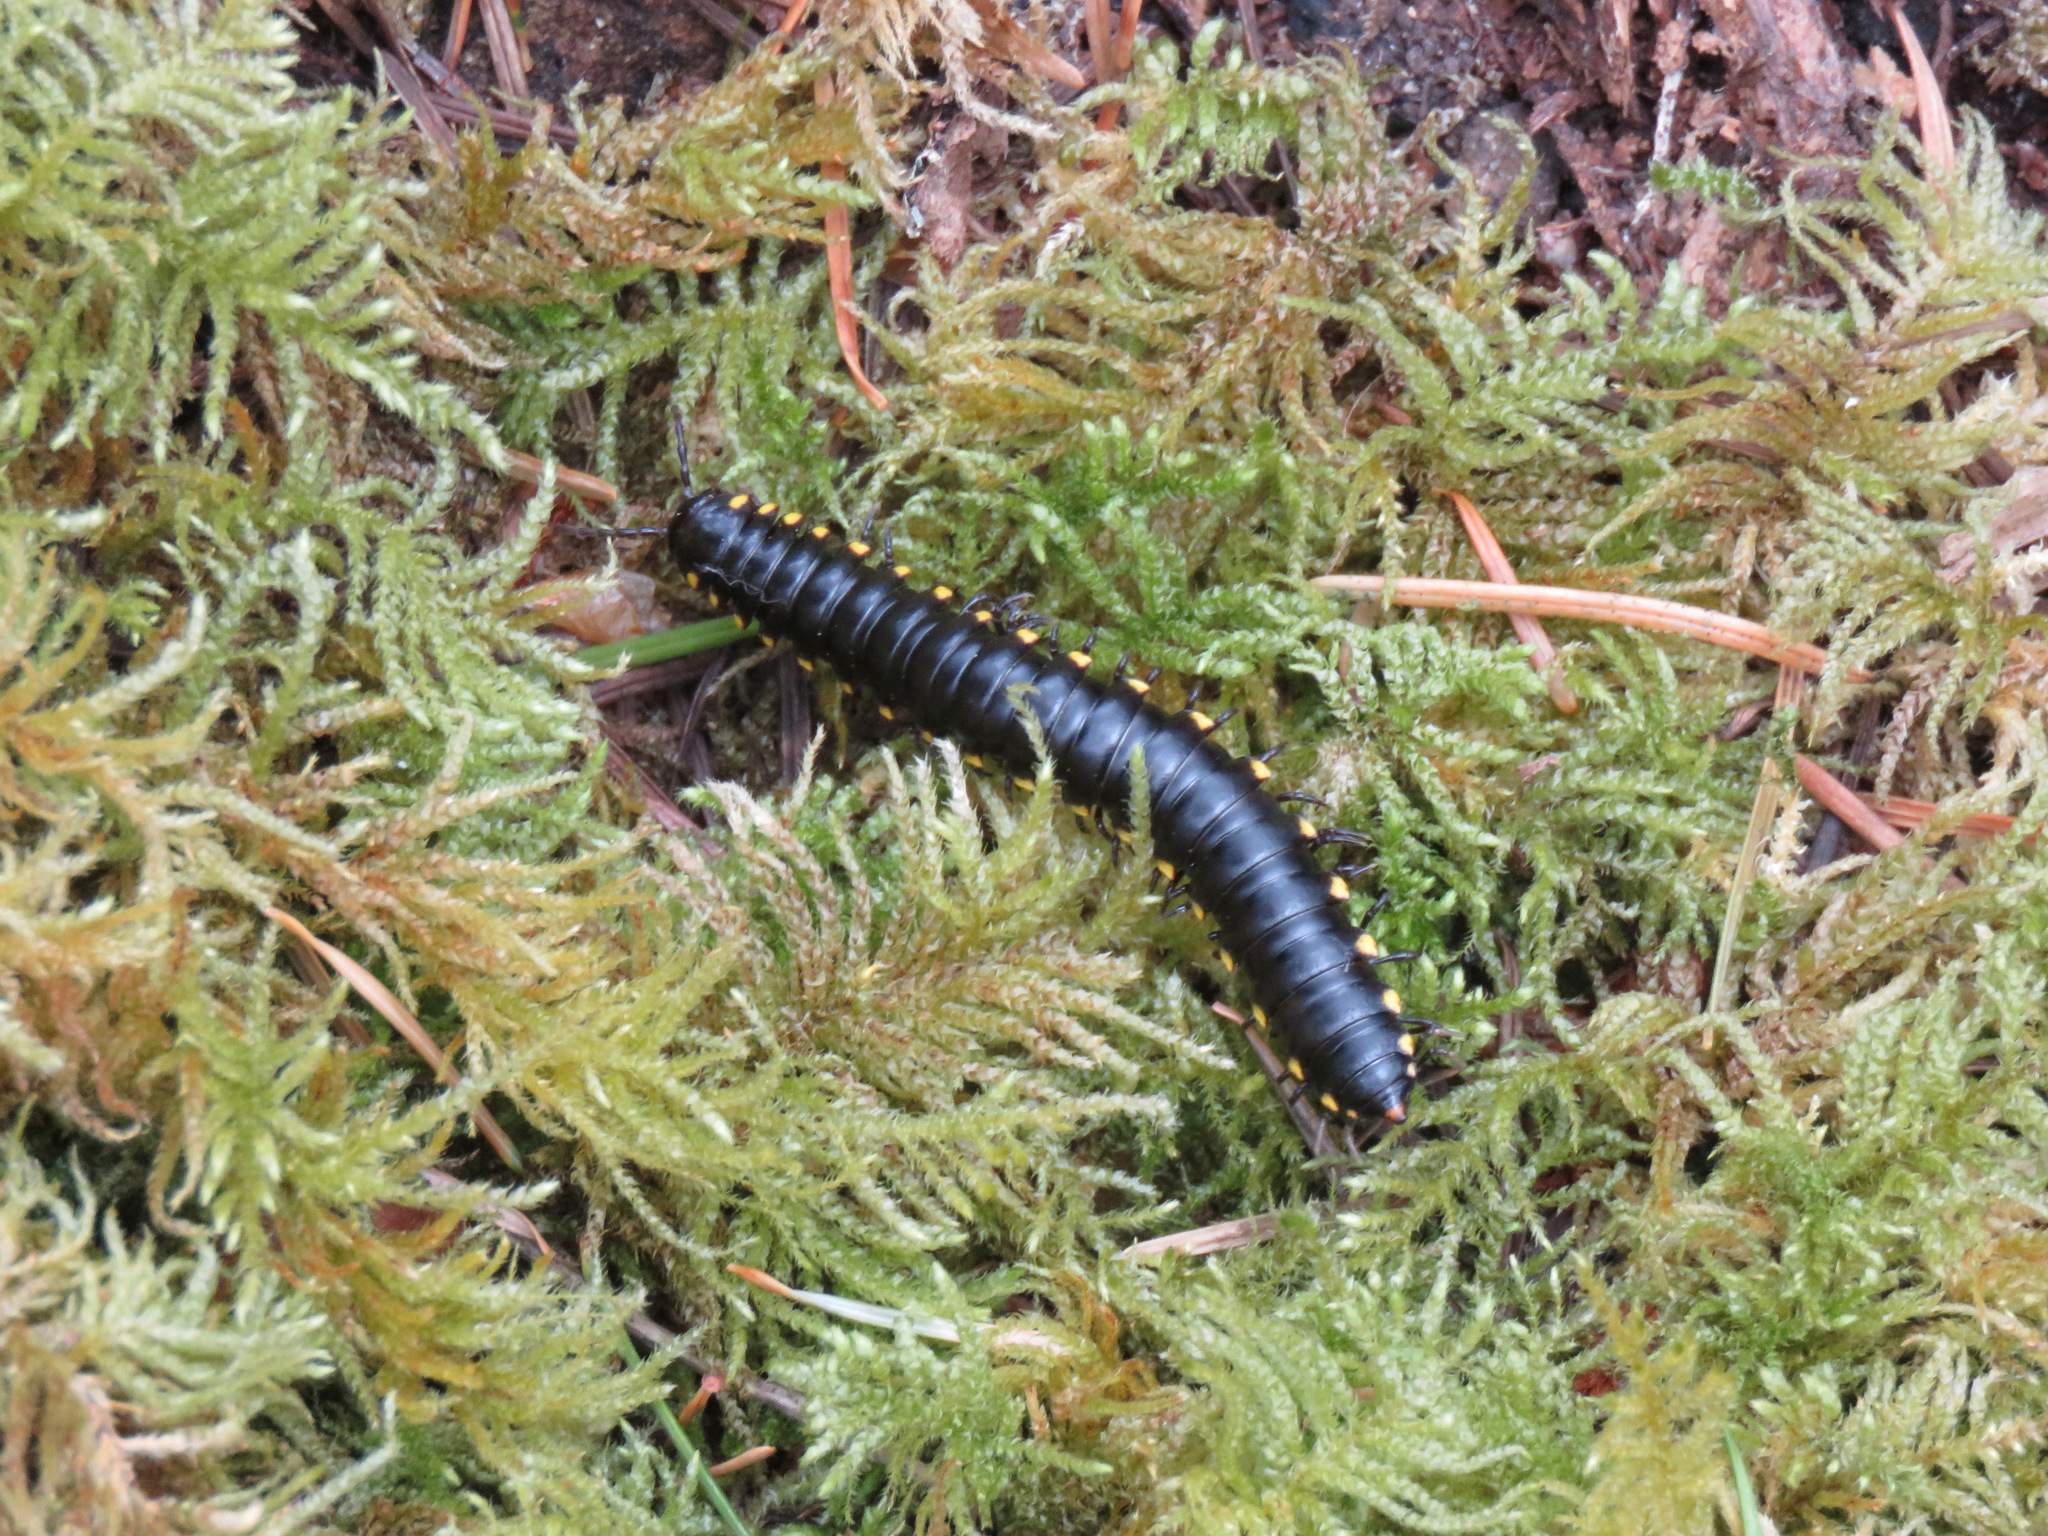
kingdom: Animalia
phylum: Arthropoda
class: Diplopoda
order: Polydesmida
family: Xystodesmidae
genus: Harpaphe
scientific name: Harpaphe haydeniana
